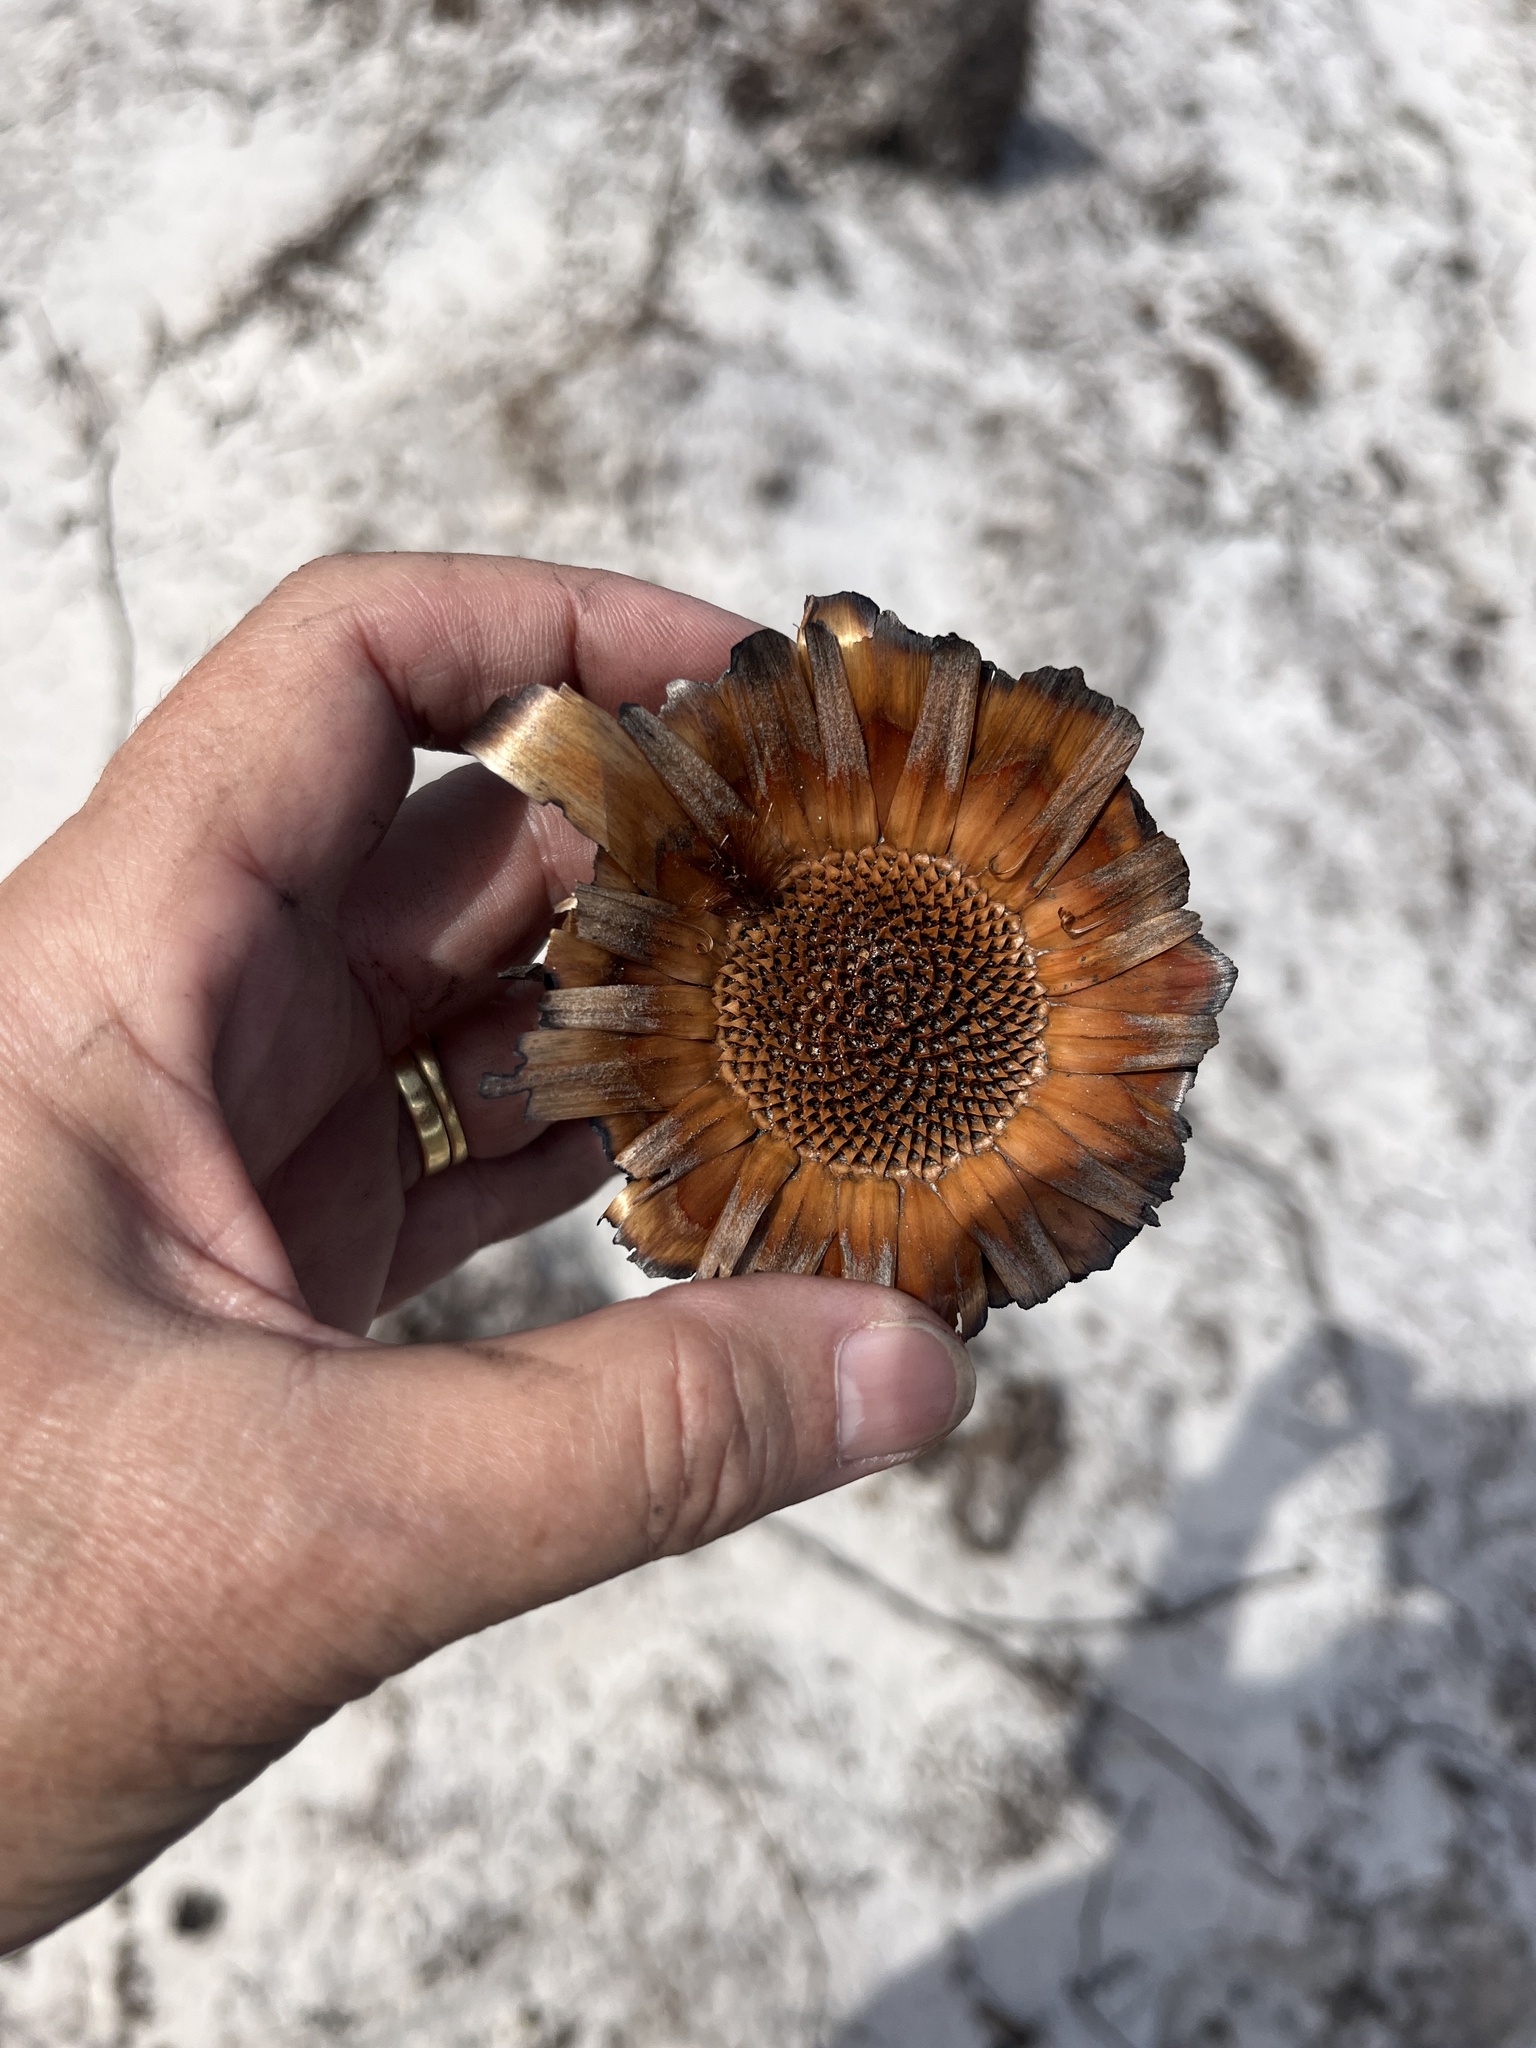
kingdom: Plantae
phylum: Tracheophyta
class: Magnoliopsida
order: Proteales
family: Proteaceae
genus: Protea
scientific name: Protea longifolia
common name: Long-leaf sugarbush
